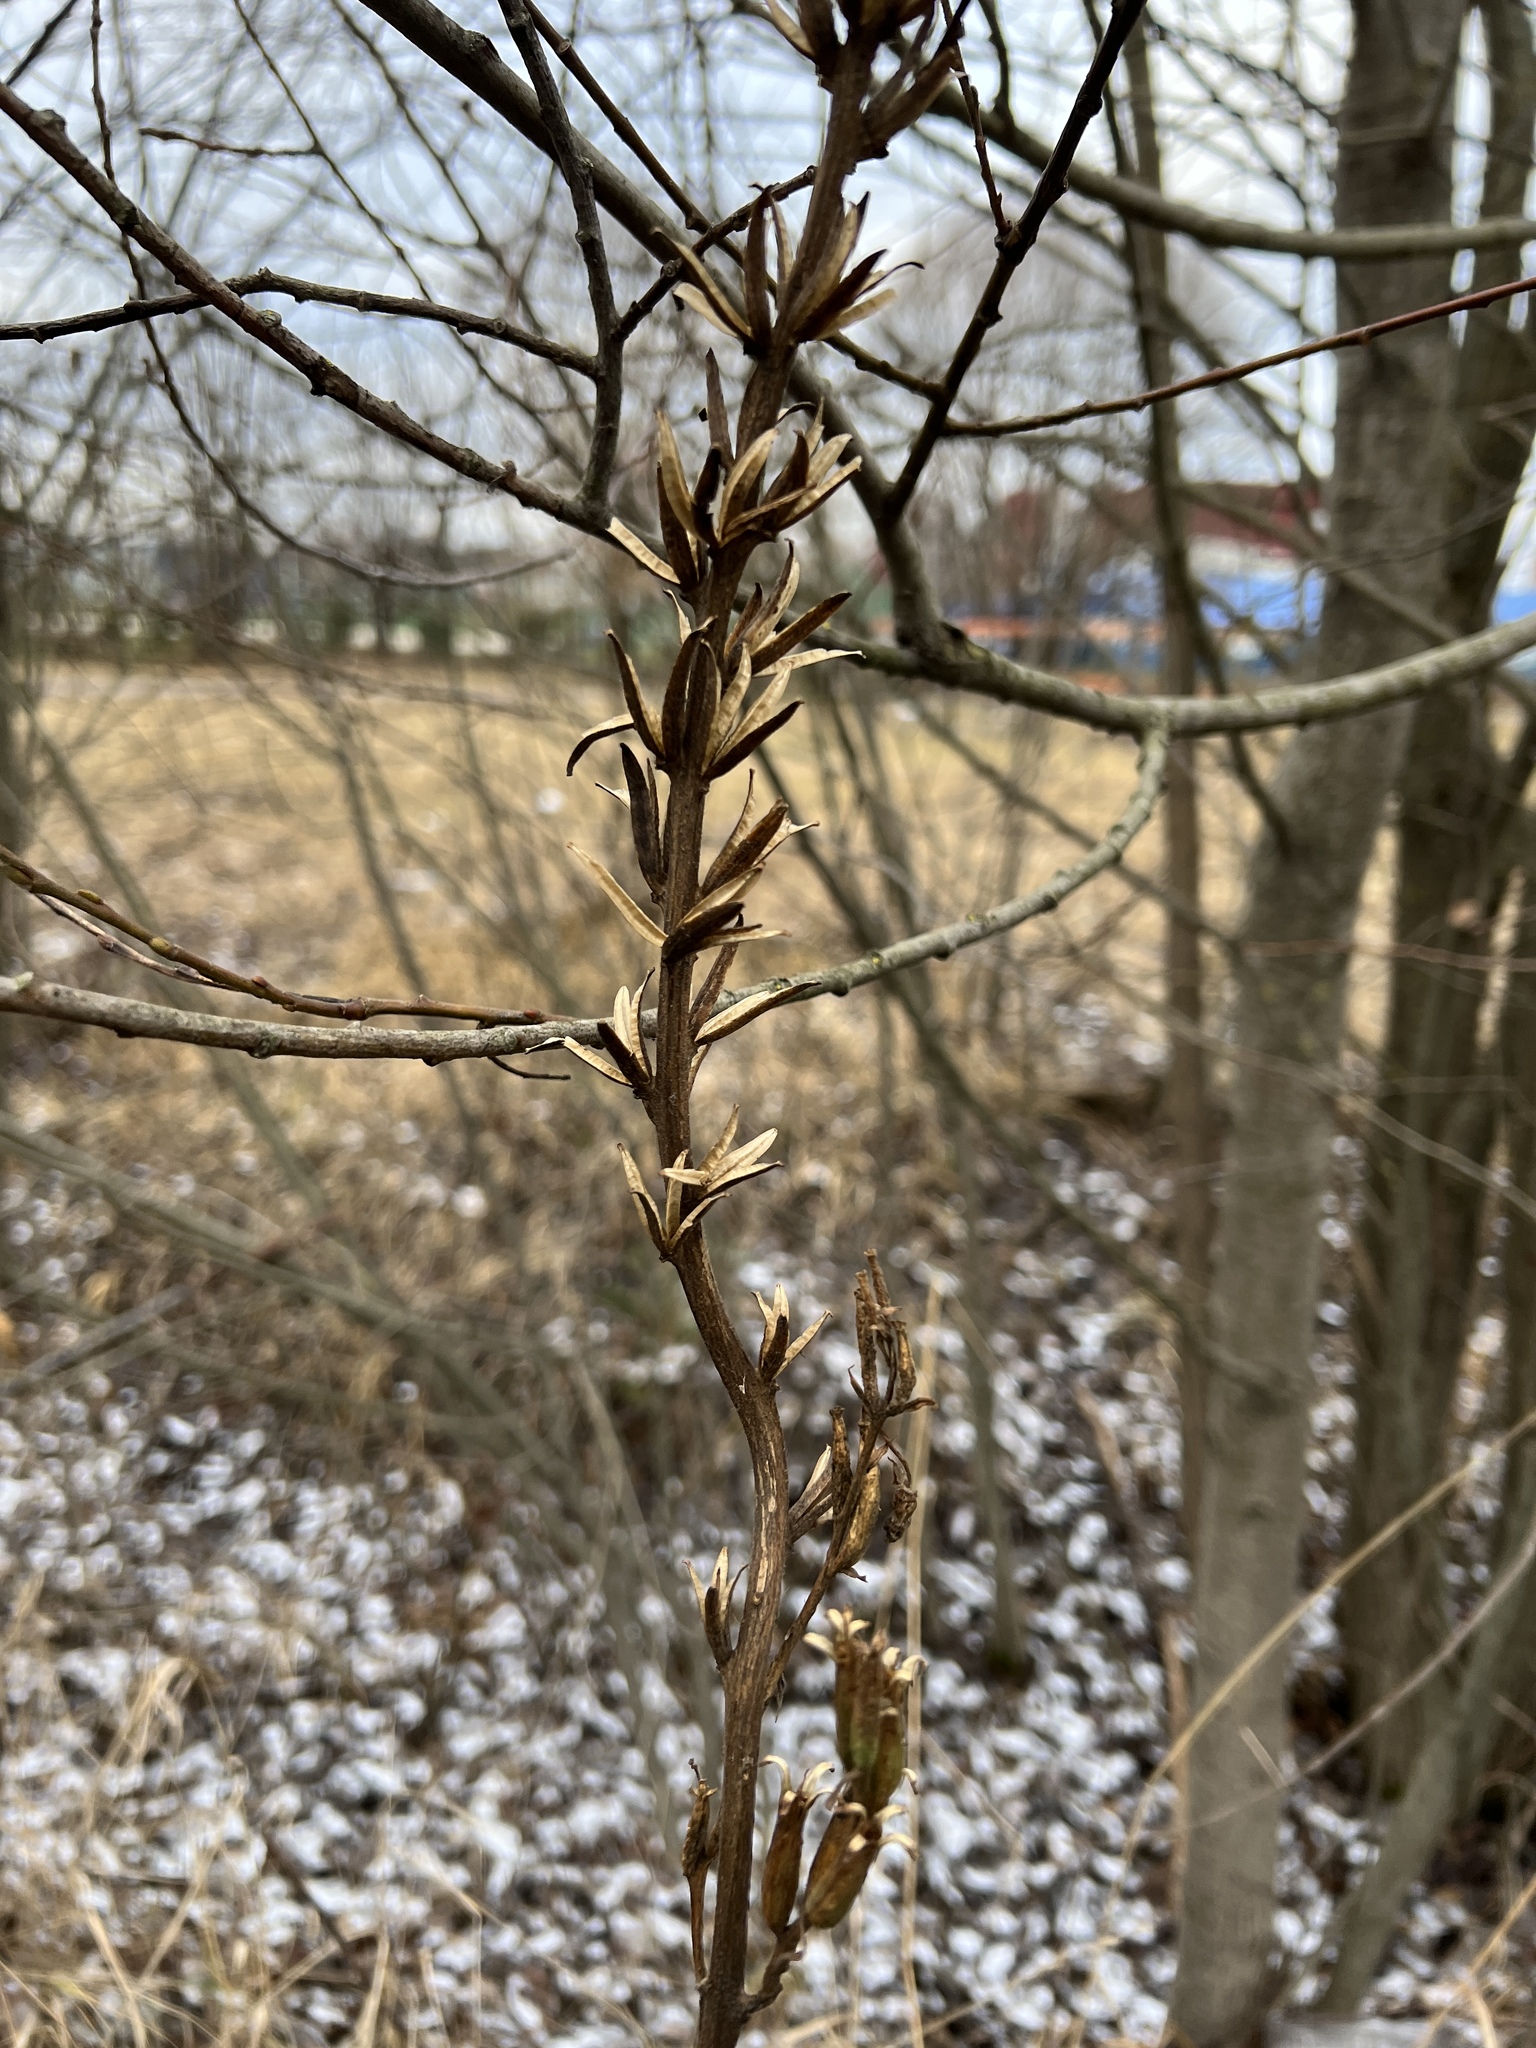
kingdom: Plantae
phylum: Tracheophyta
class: Magnoliopsida
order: Myrtales
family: Onagraceae
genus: Oenothera
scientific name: Oenothera
